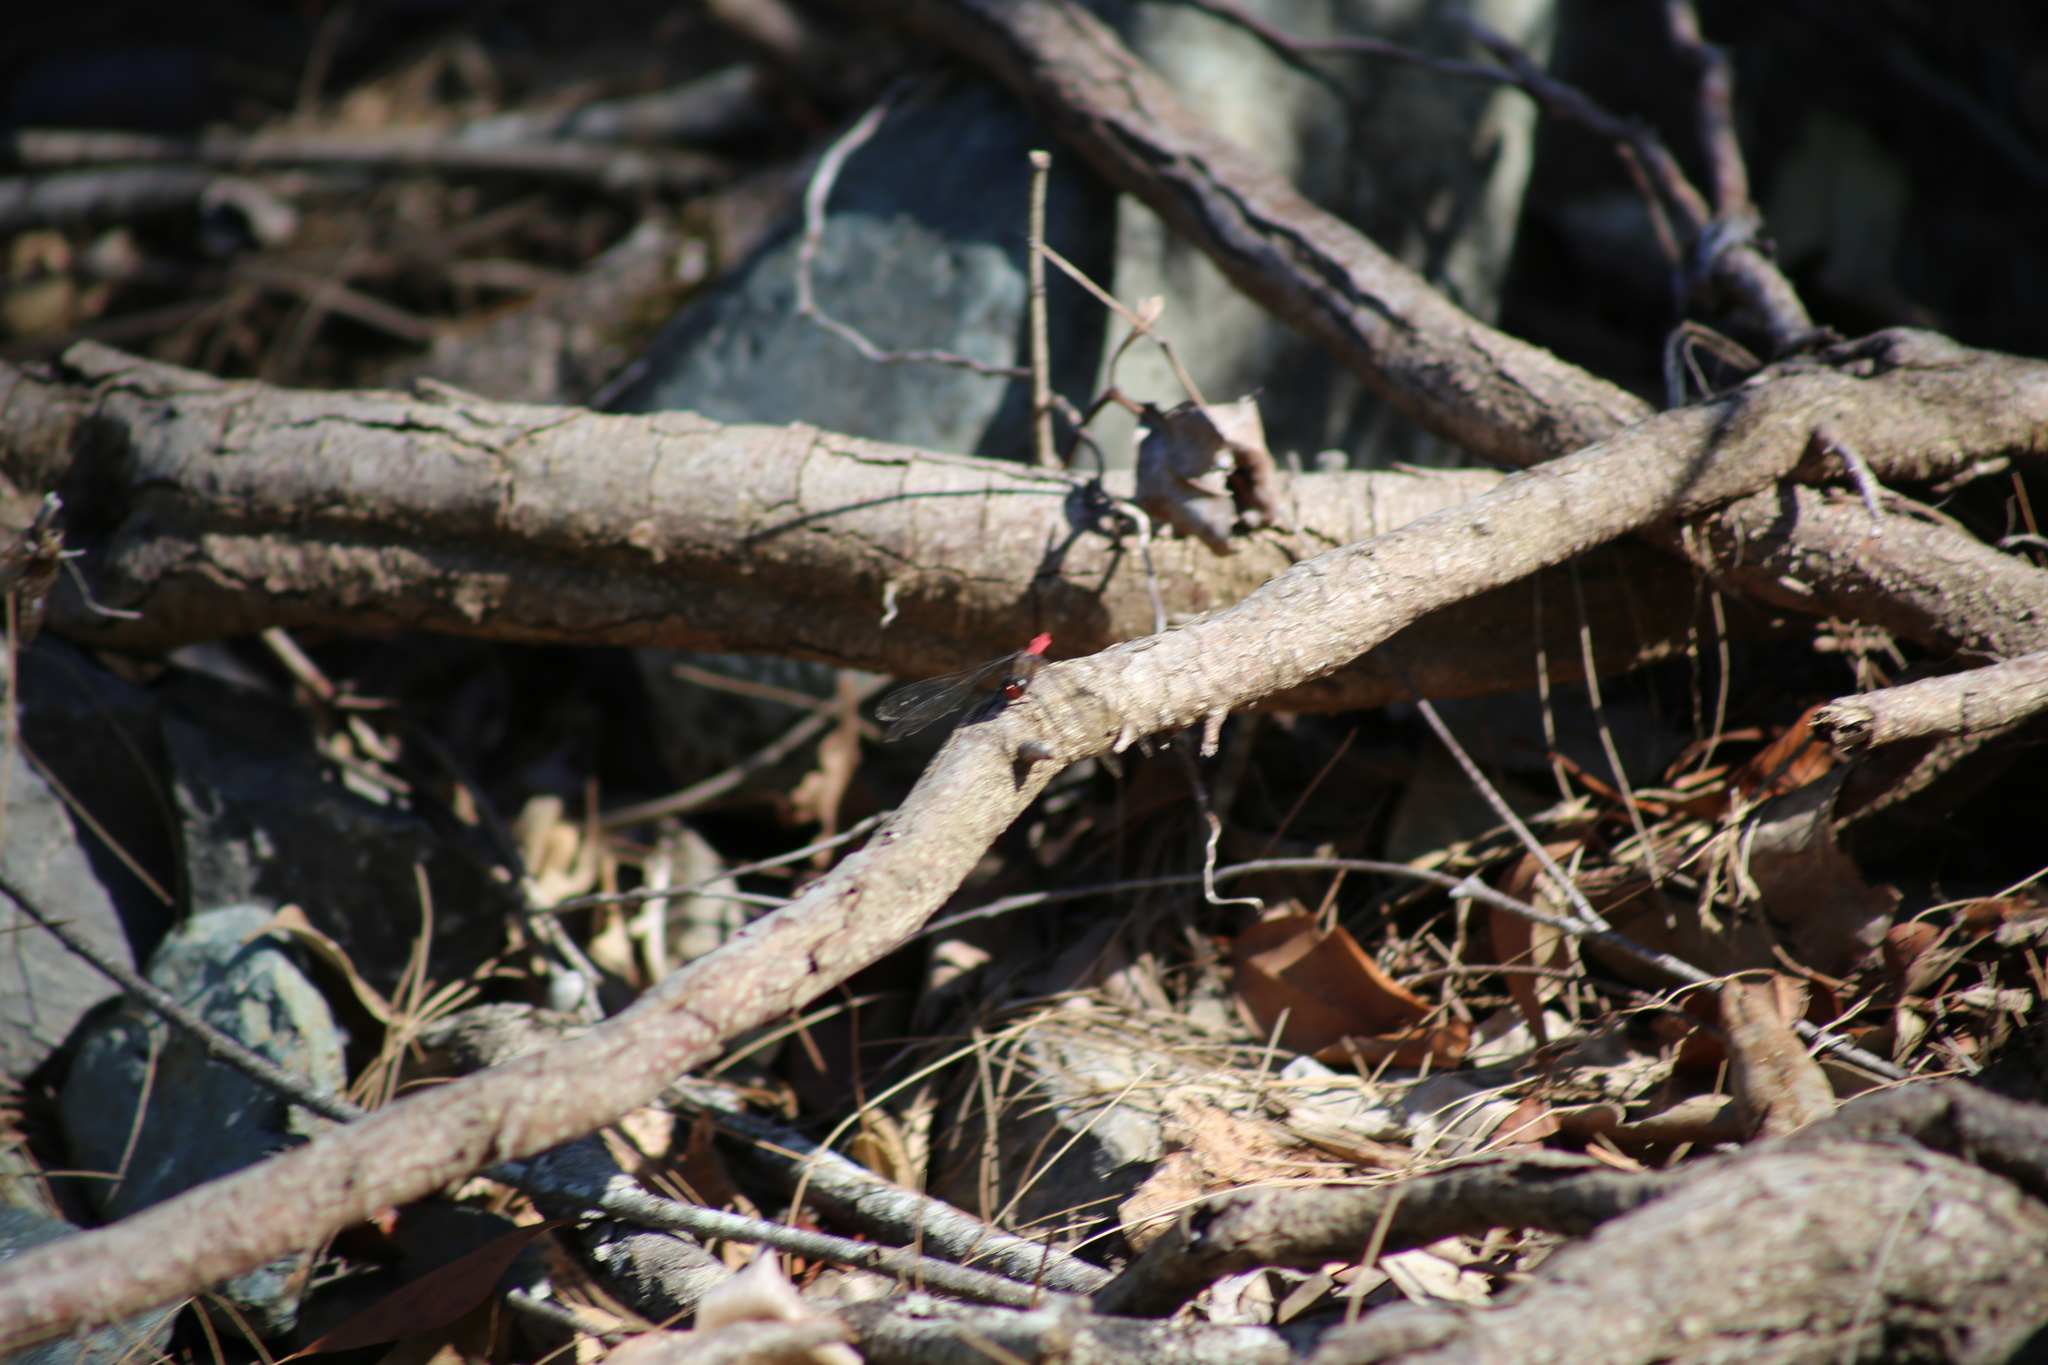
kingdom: Animalia
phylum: Arthropoda
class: Insecta
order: Odonata
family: Libellulidae
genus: Orthetrum
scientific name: Orthetrum villosovittatum
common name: Firery skimmer
